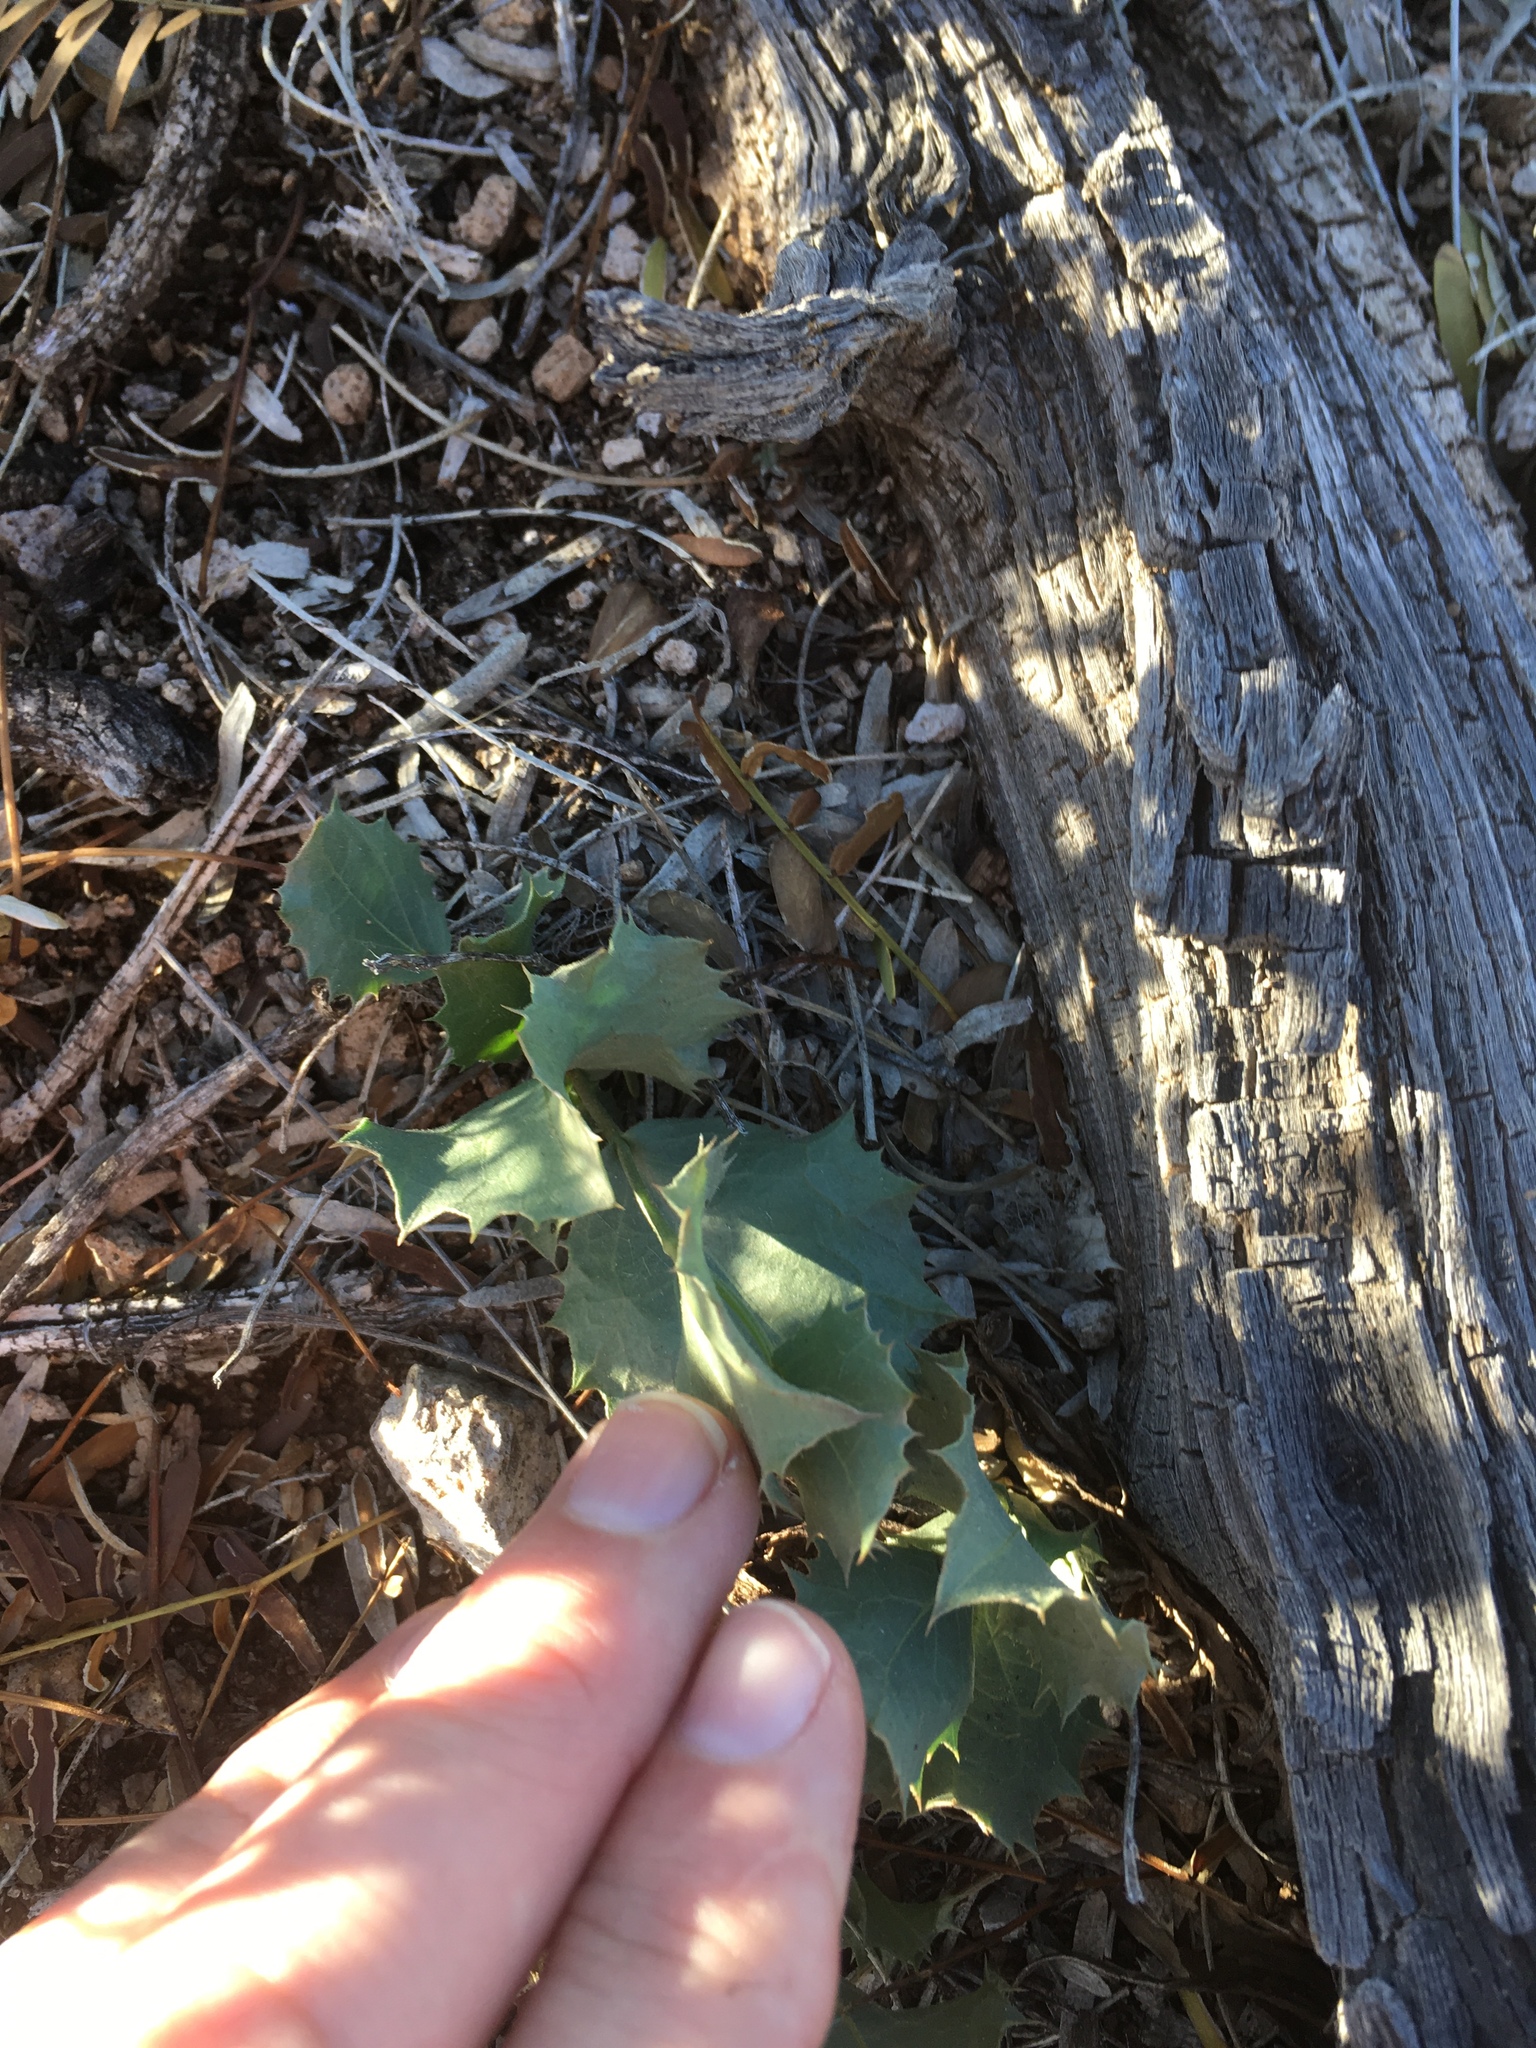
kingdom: Plantae
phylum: Tracheophyta
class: Magnoliopsida
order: Asterales
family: Asteraceae
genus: Acourtia
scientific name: Acourtia nana
